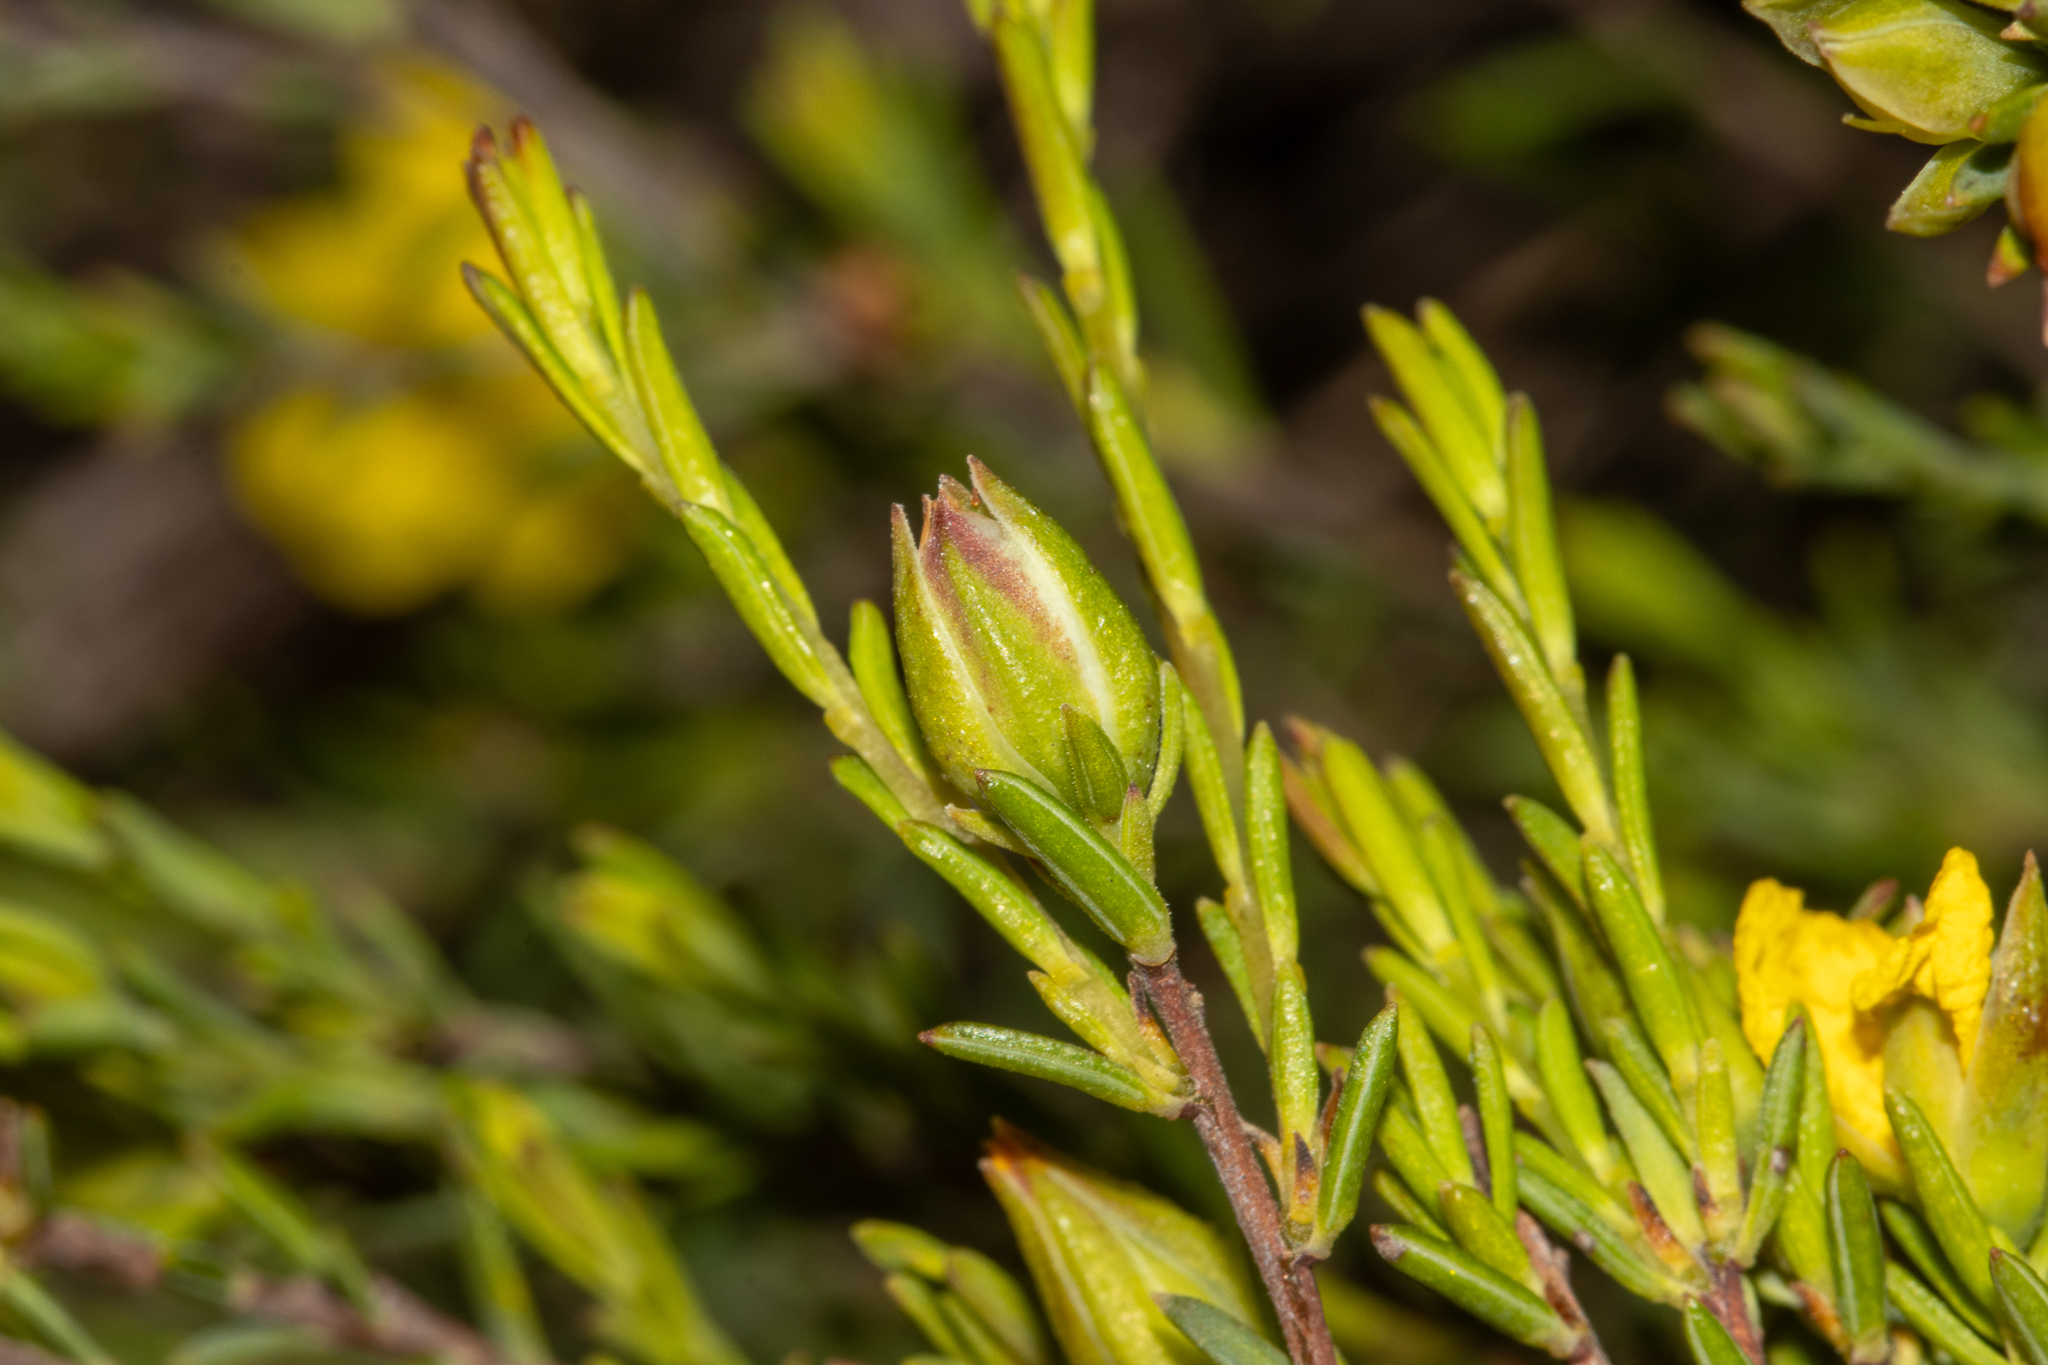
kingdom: Plantae
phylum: Tracheophyta
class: Magnoliopsida
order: Dilleniales
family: Dilleniaceae
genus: Hibbertia
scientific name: Hibbertia devitata
